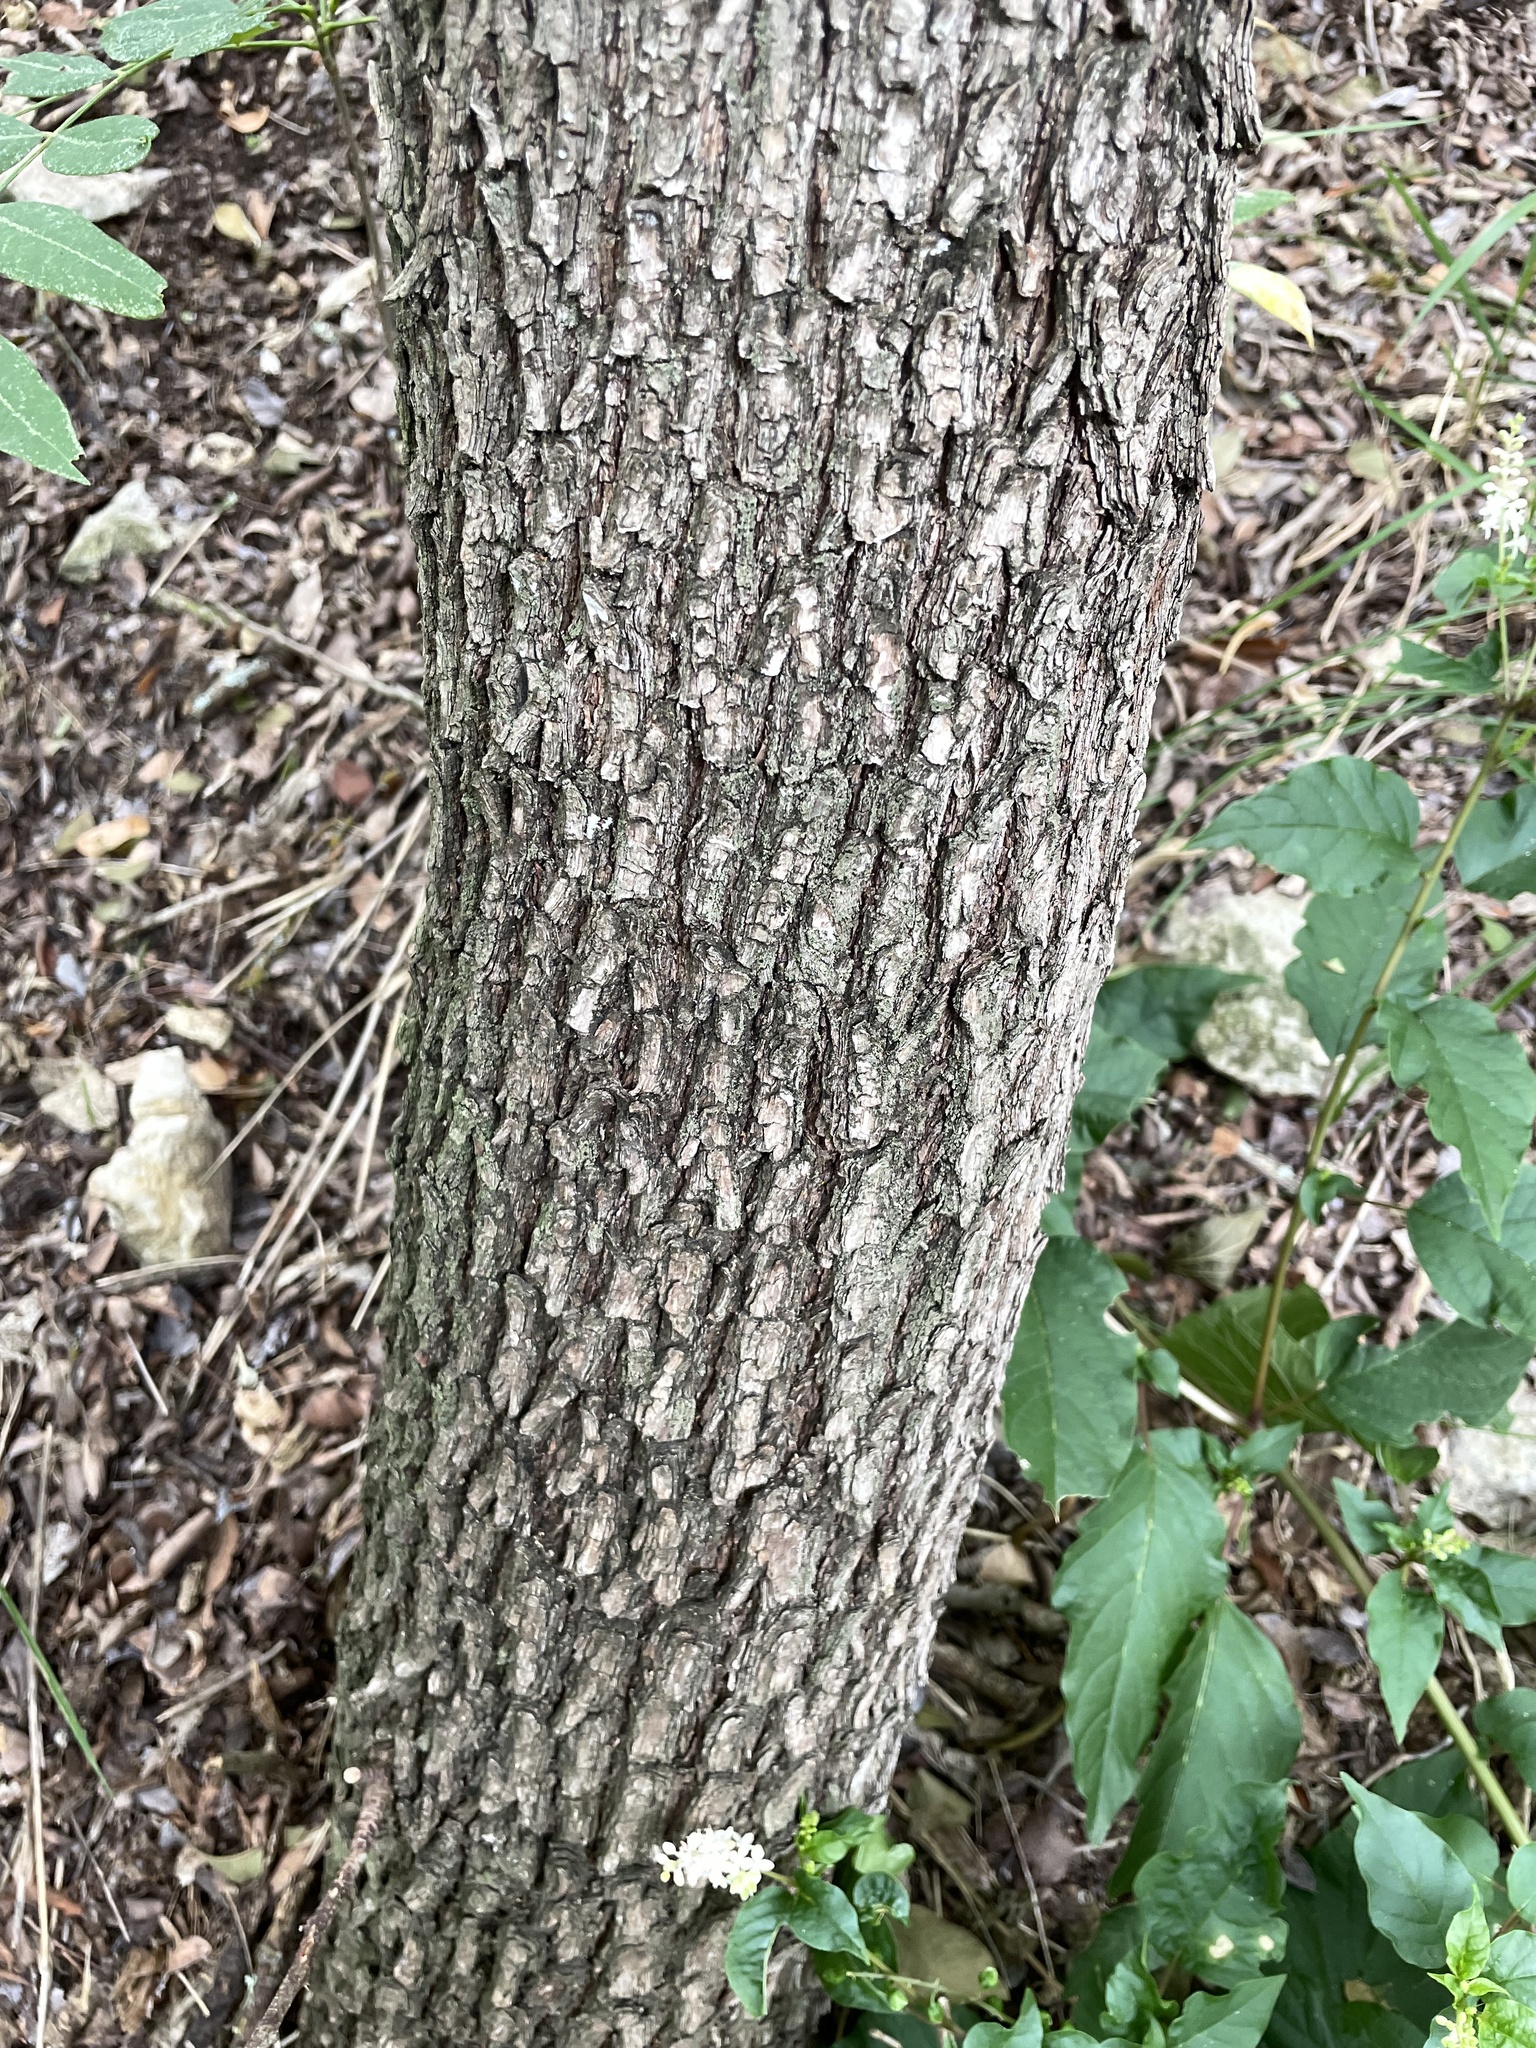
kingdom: Plantae
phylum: Tracheophyta
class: Magnoliopsida
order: Ericales
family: Sapotaceae
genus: Sideroxylon
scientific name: Sideroxylon lanuginosum
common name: Chittamwood
